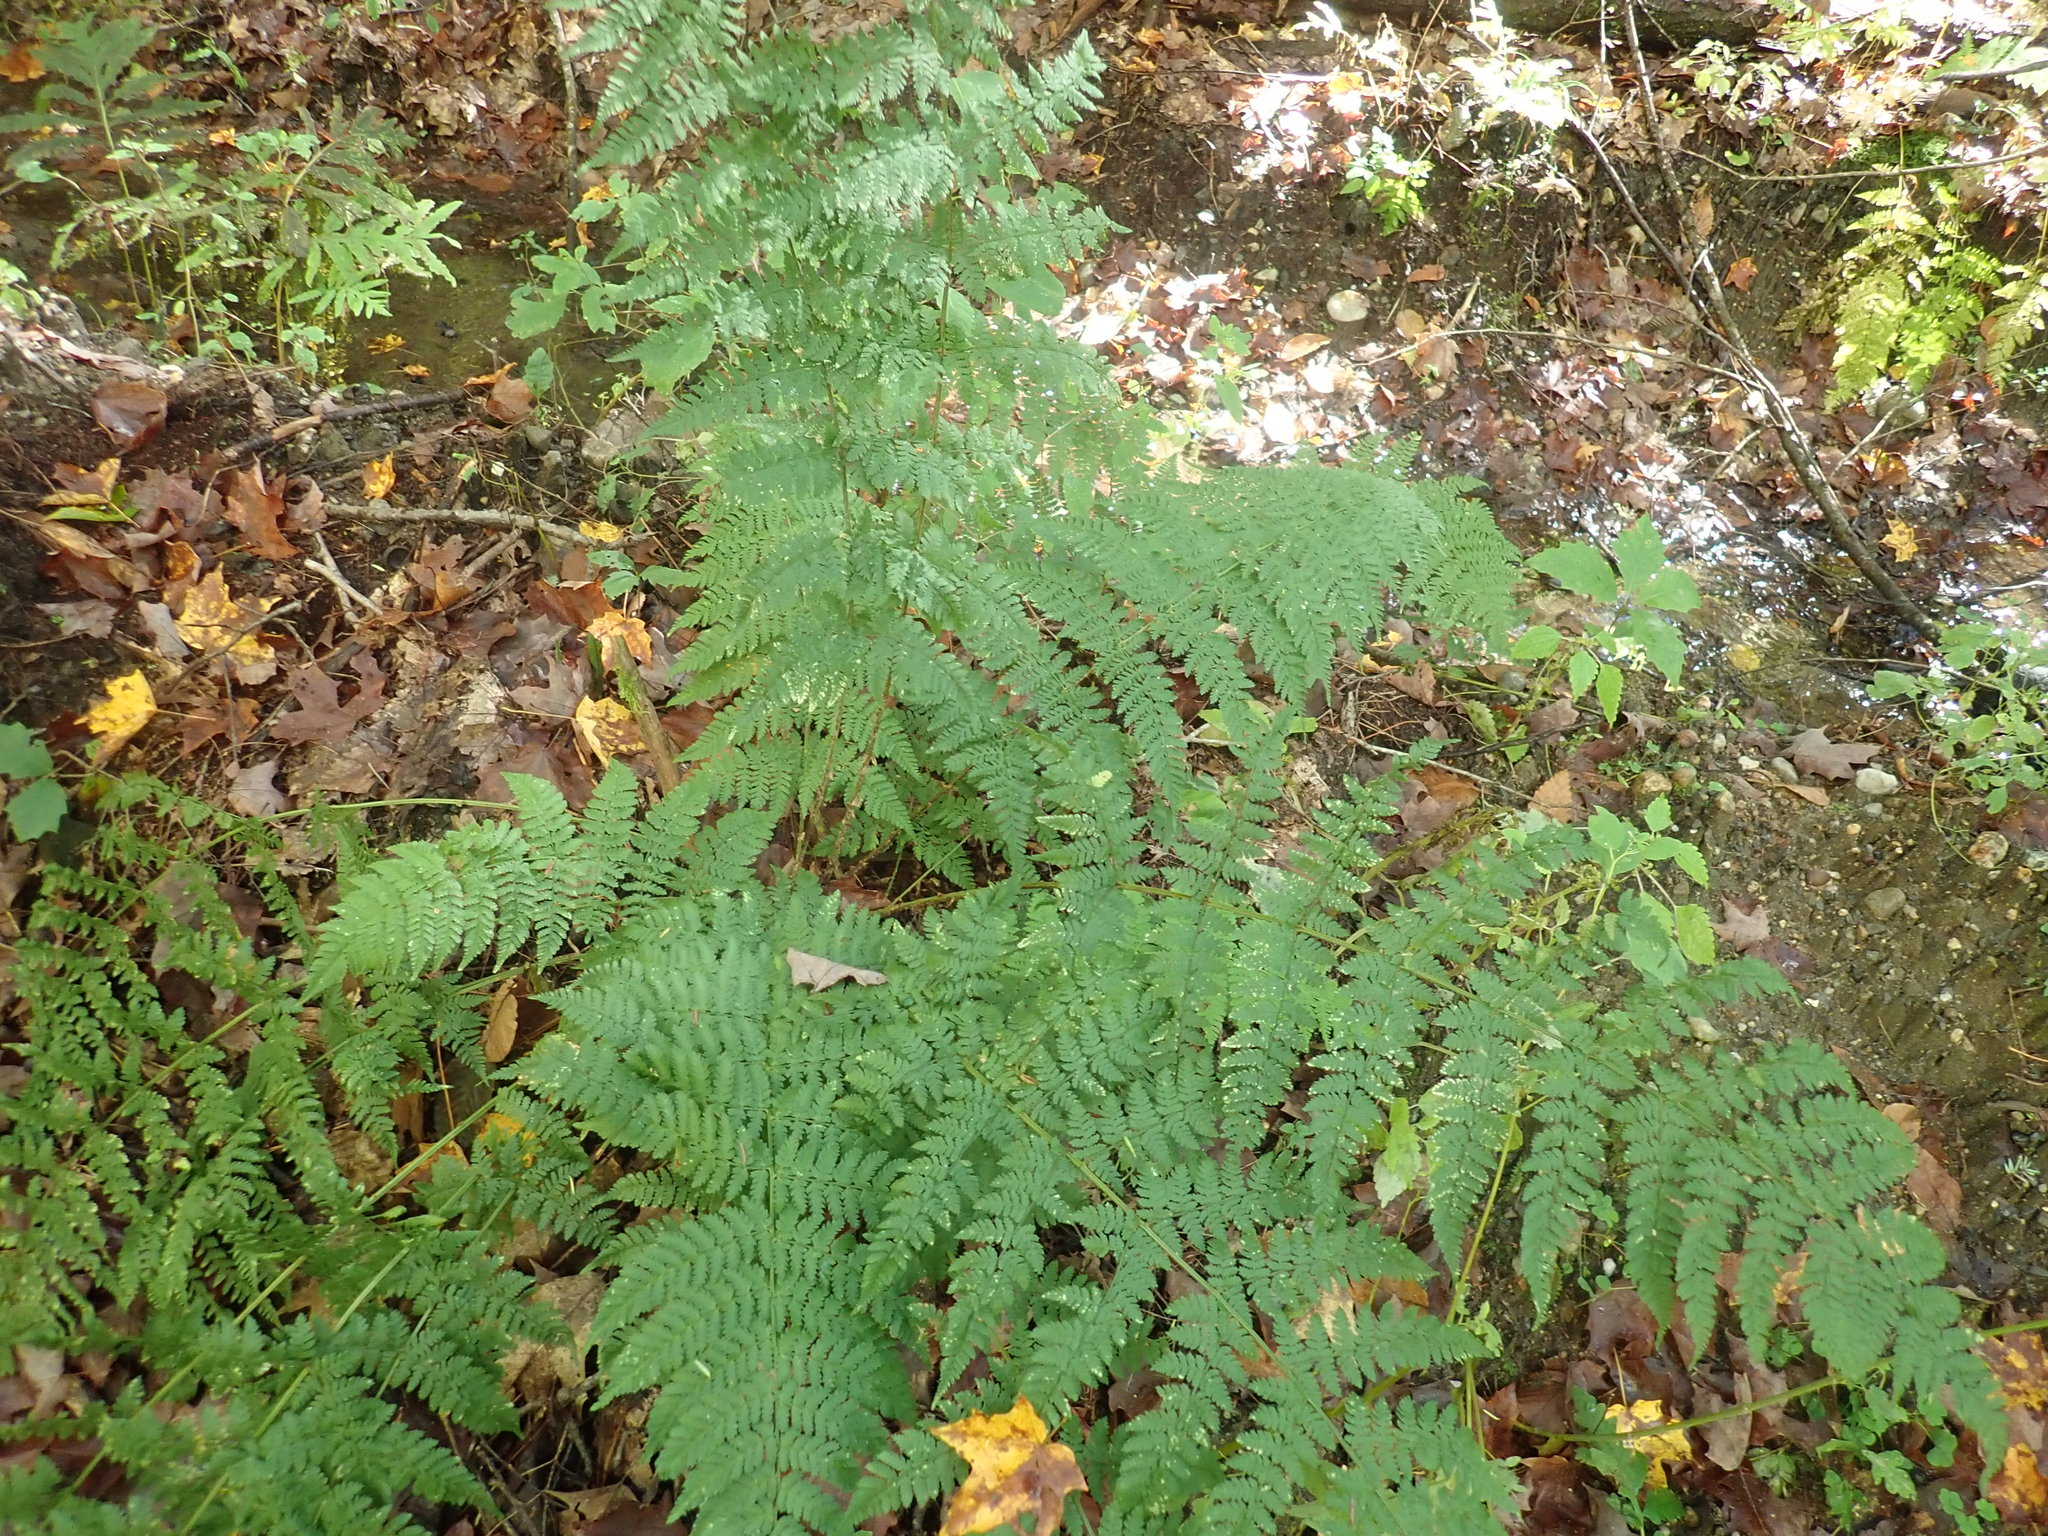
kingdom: Plantae
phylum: Tracheophyta
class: Polypodiopsida
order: Polypodiales
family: Dryopteridaceae
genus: Dryopteris
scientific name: Dryopteris intermedia
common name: Evergreen wood fern
